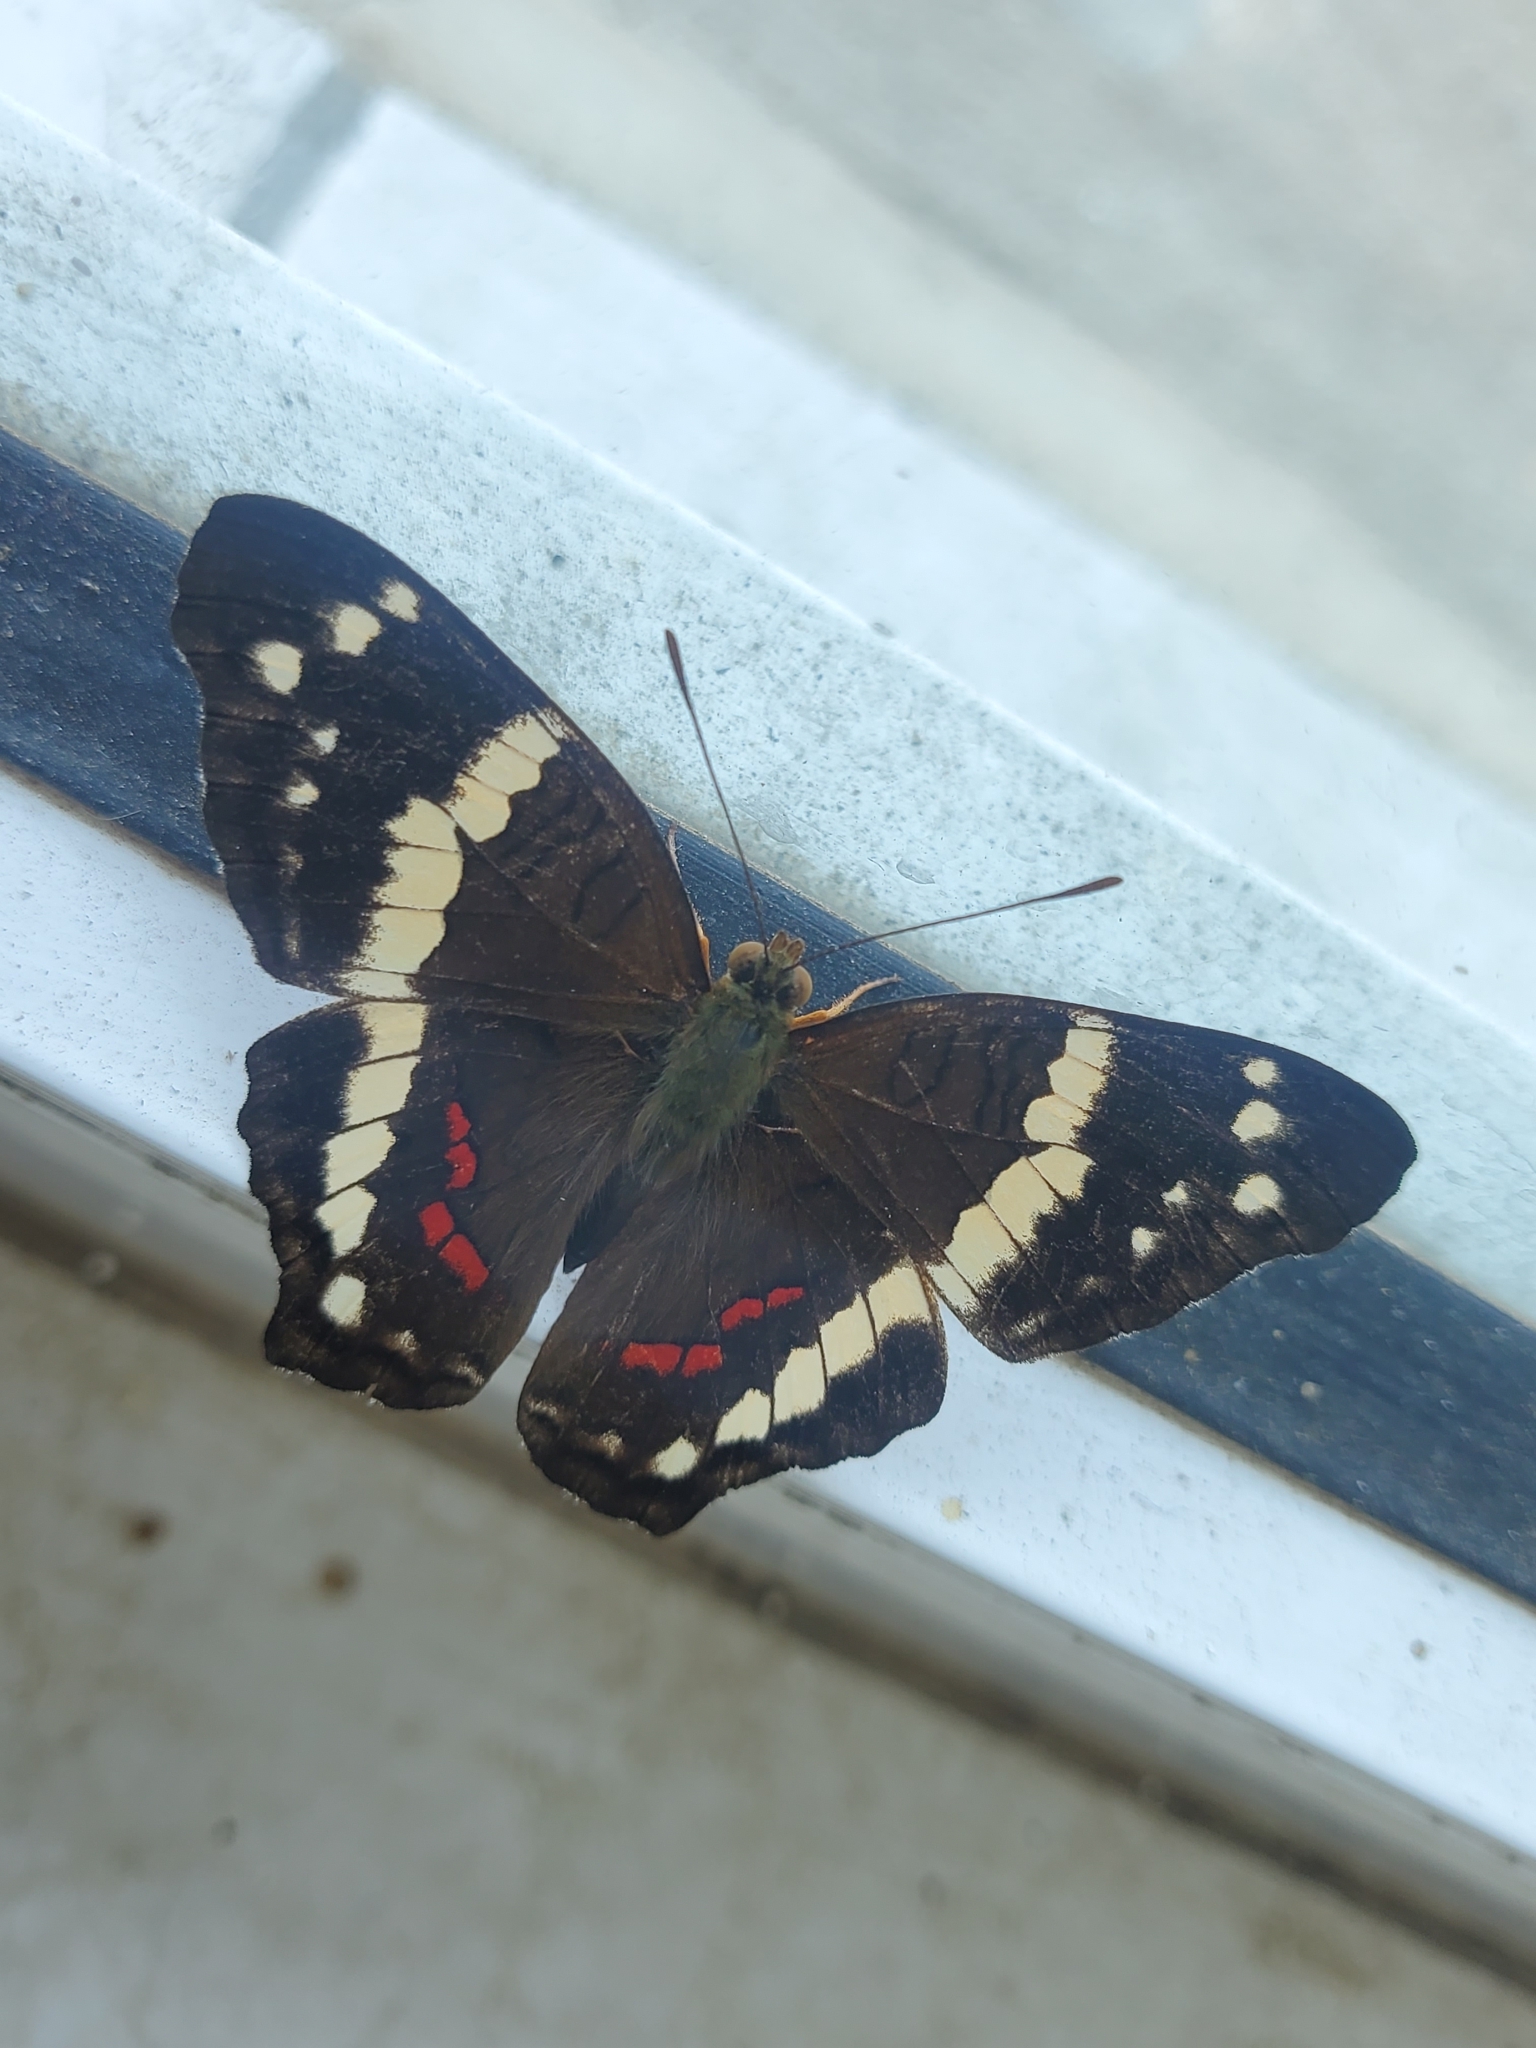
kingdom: Animalia
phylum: Arthropoda
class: Insecta
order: Lepidoptera
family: Nymphalidae
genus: Anartia
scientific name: Anartia fatima
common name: Banded peacock
